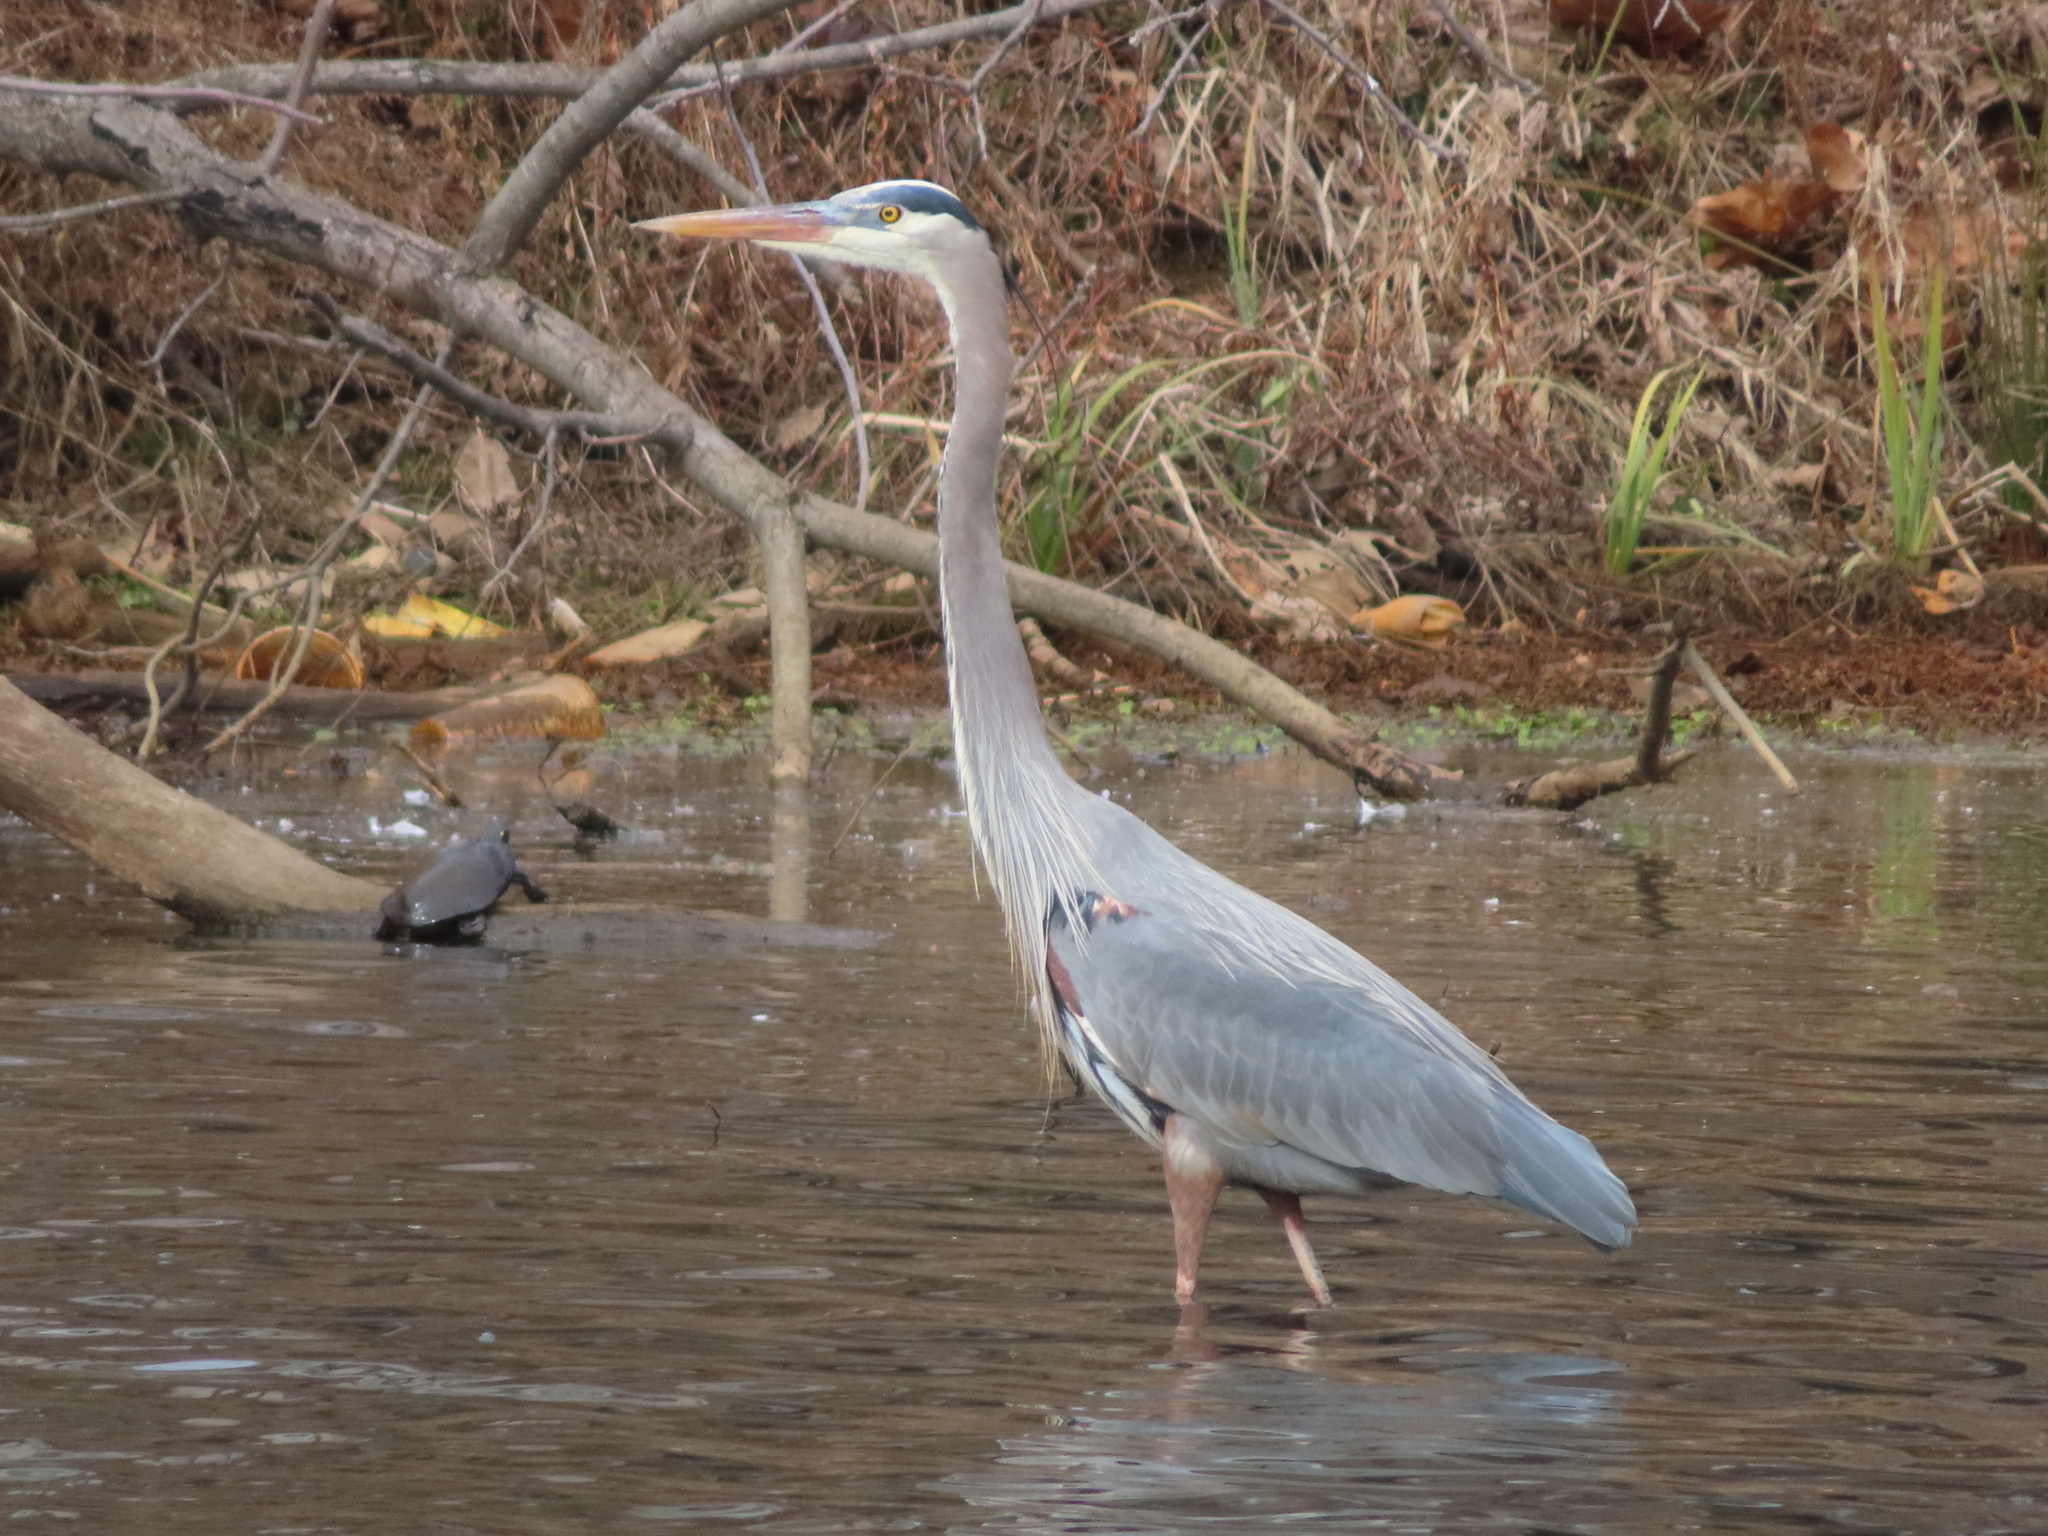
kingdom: Animalia
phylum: Chordata
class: Aves
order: Pelecaniformes
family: Ardeidae
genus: Ardea
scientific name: Ardea herodias
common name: Great blue heron
